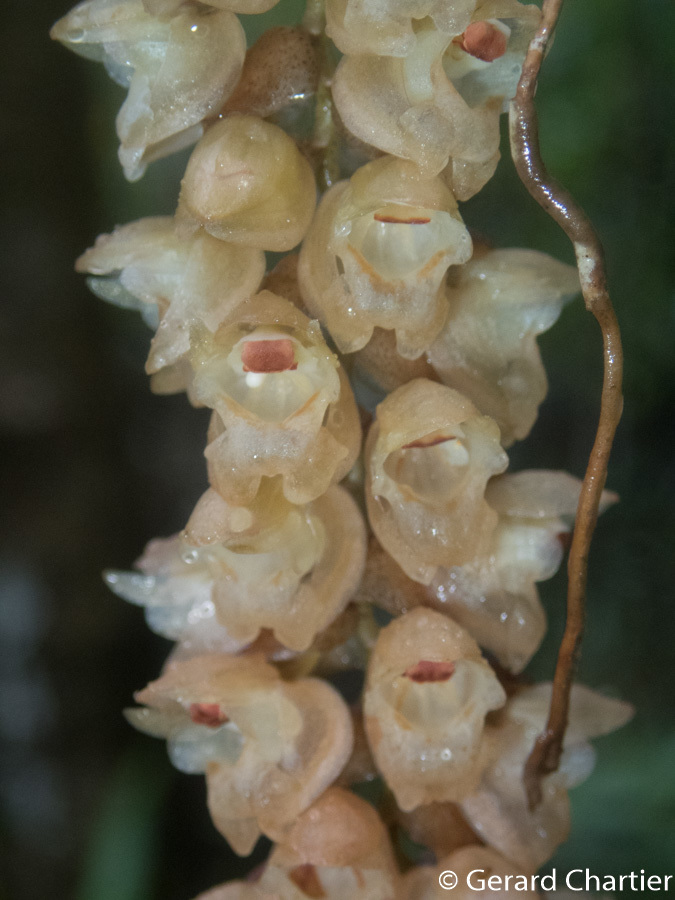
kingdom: Plantae
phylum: Tracheophyta
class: Liliopsida
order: Asparagales
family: Orchidaceae
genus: Pholidota
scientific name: Pholidota imbricata
